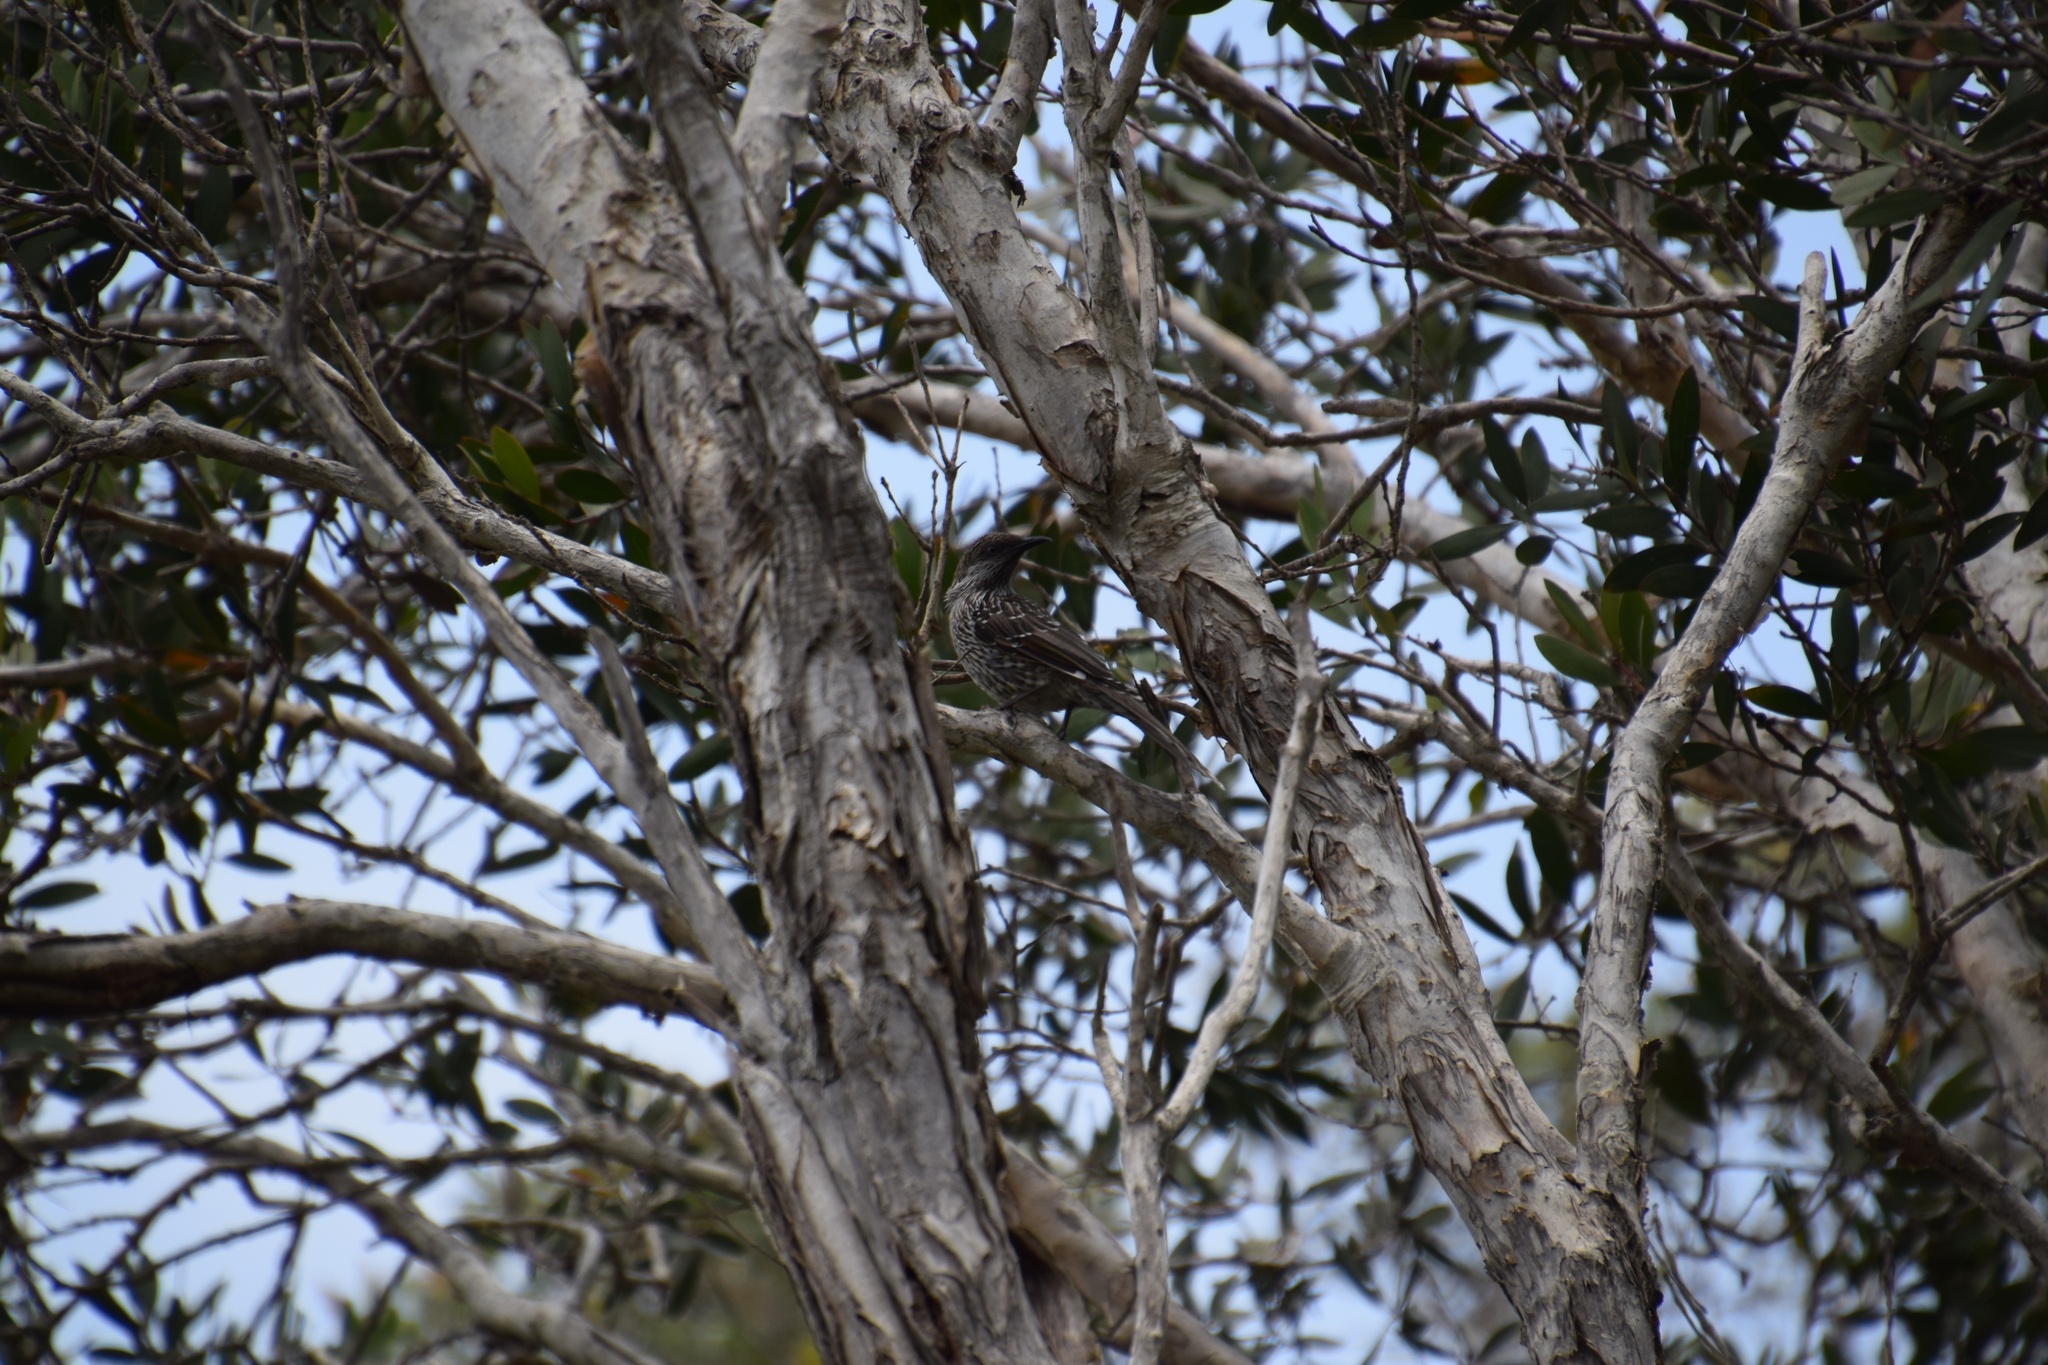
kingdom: Animalia
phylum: Chordata
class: Aves
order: Passeriformes
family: Meliphagidae
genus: Anthochaera
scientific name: Anthochaera chrysoptera
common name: Little wattlebird
